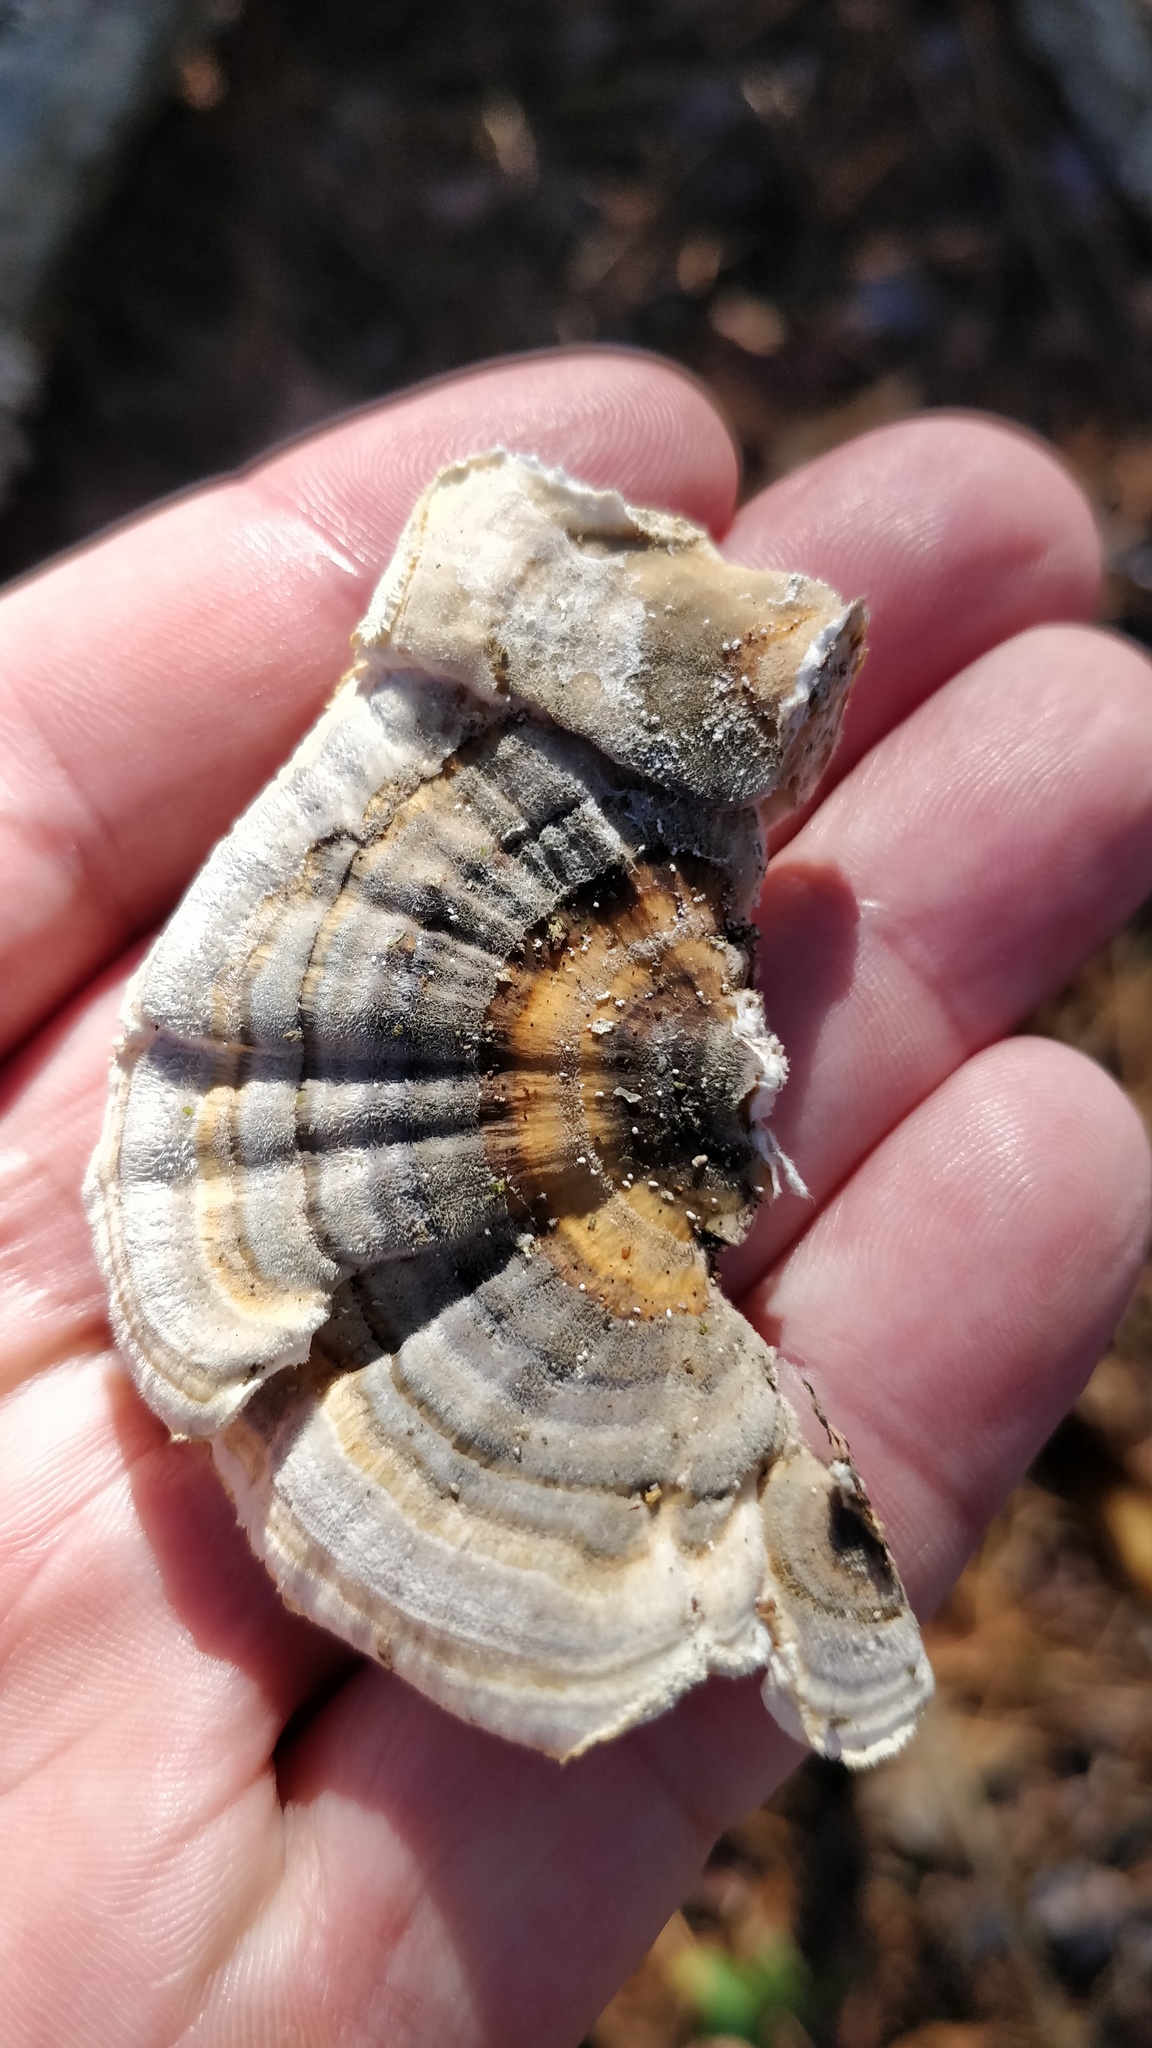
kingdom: Fungi
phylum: Basidiomycota
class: Agaricomycetes
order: Polyporales
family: Polyporaceae
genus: Trametes
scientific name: Trametes versicolor
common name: Turkeytail
